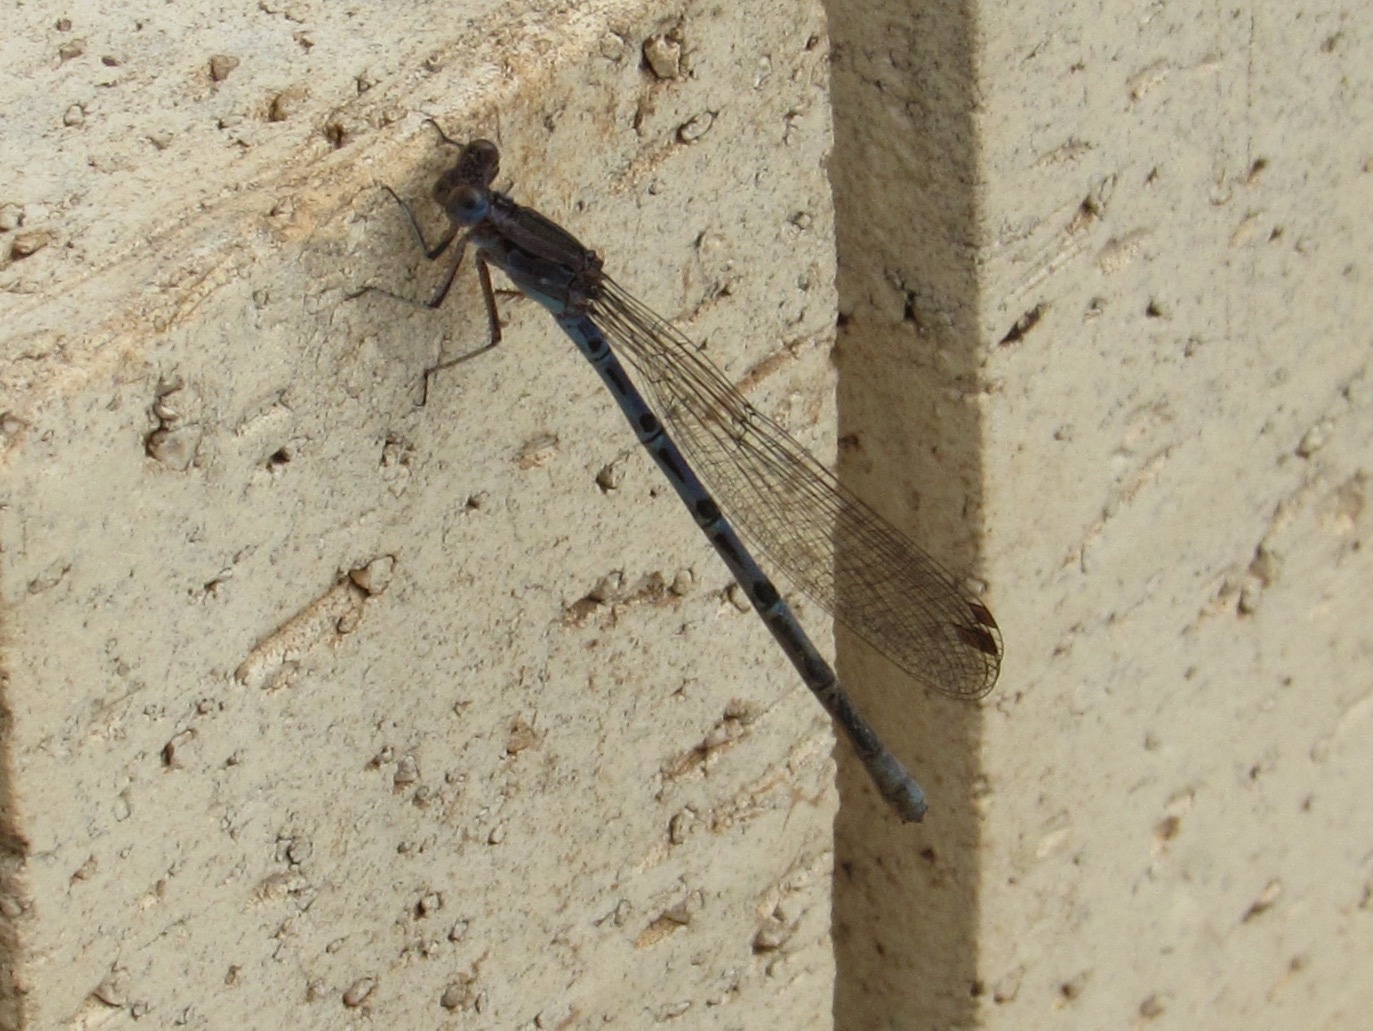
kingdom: Animalia
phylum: Arthropoda
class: Insecta
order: Odonata
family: Coenagrionidae
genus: Argia
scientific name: Argia funebris
